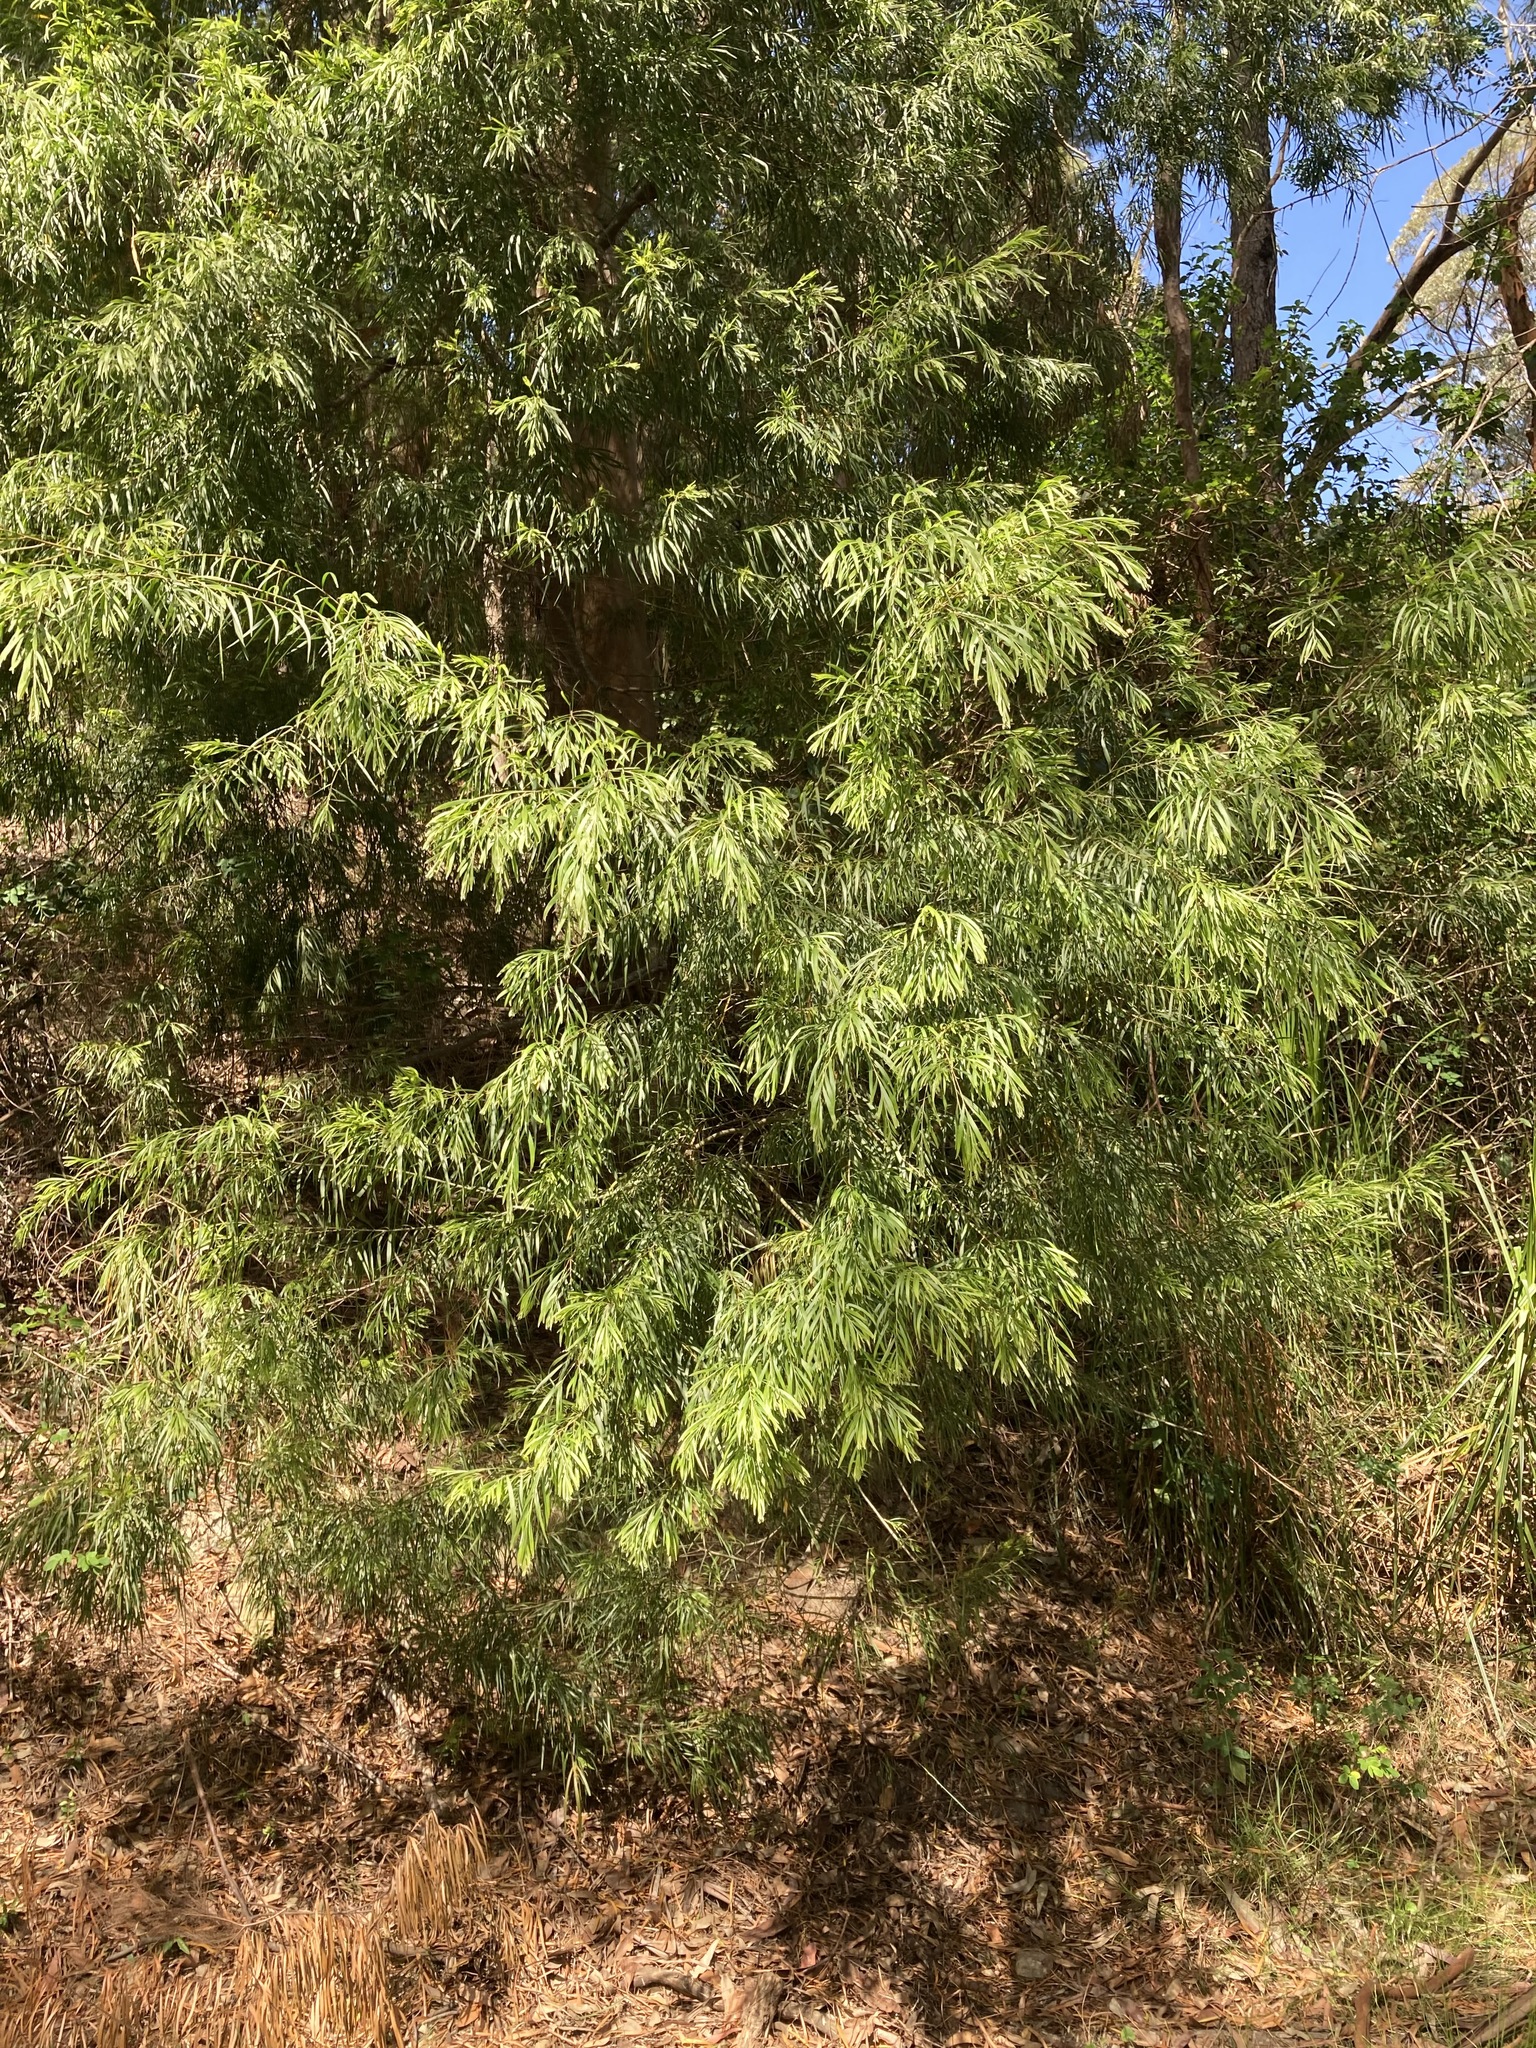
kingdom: Plantae
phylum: Tracheophyta
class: Magnoliopsida
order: Fabales
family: Fabaceae
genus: Acacia
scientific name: Acacia floribunda
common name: Gossamer wattle
